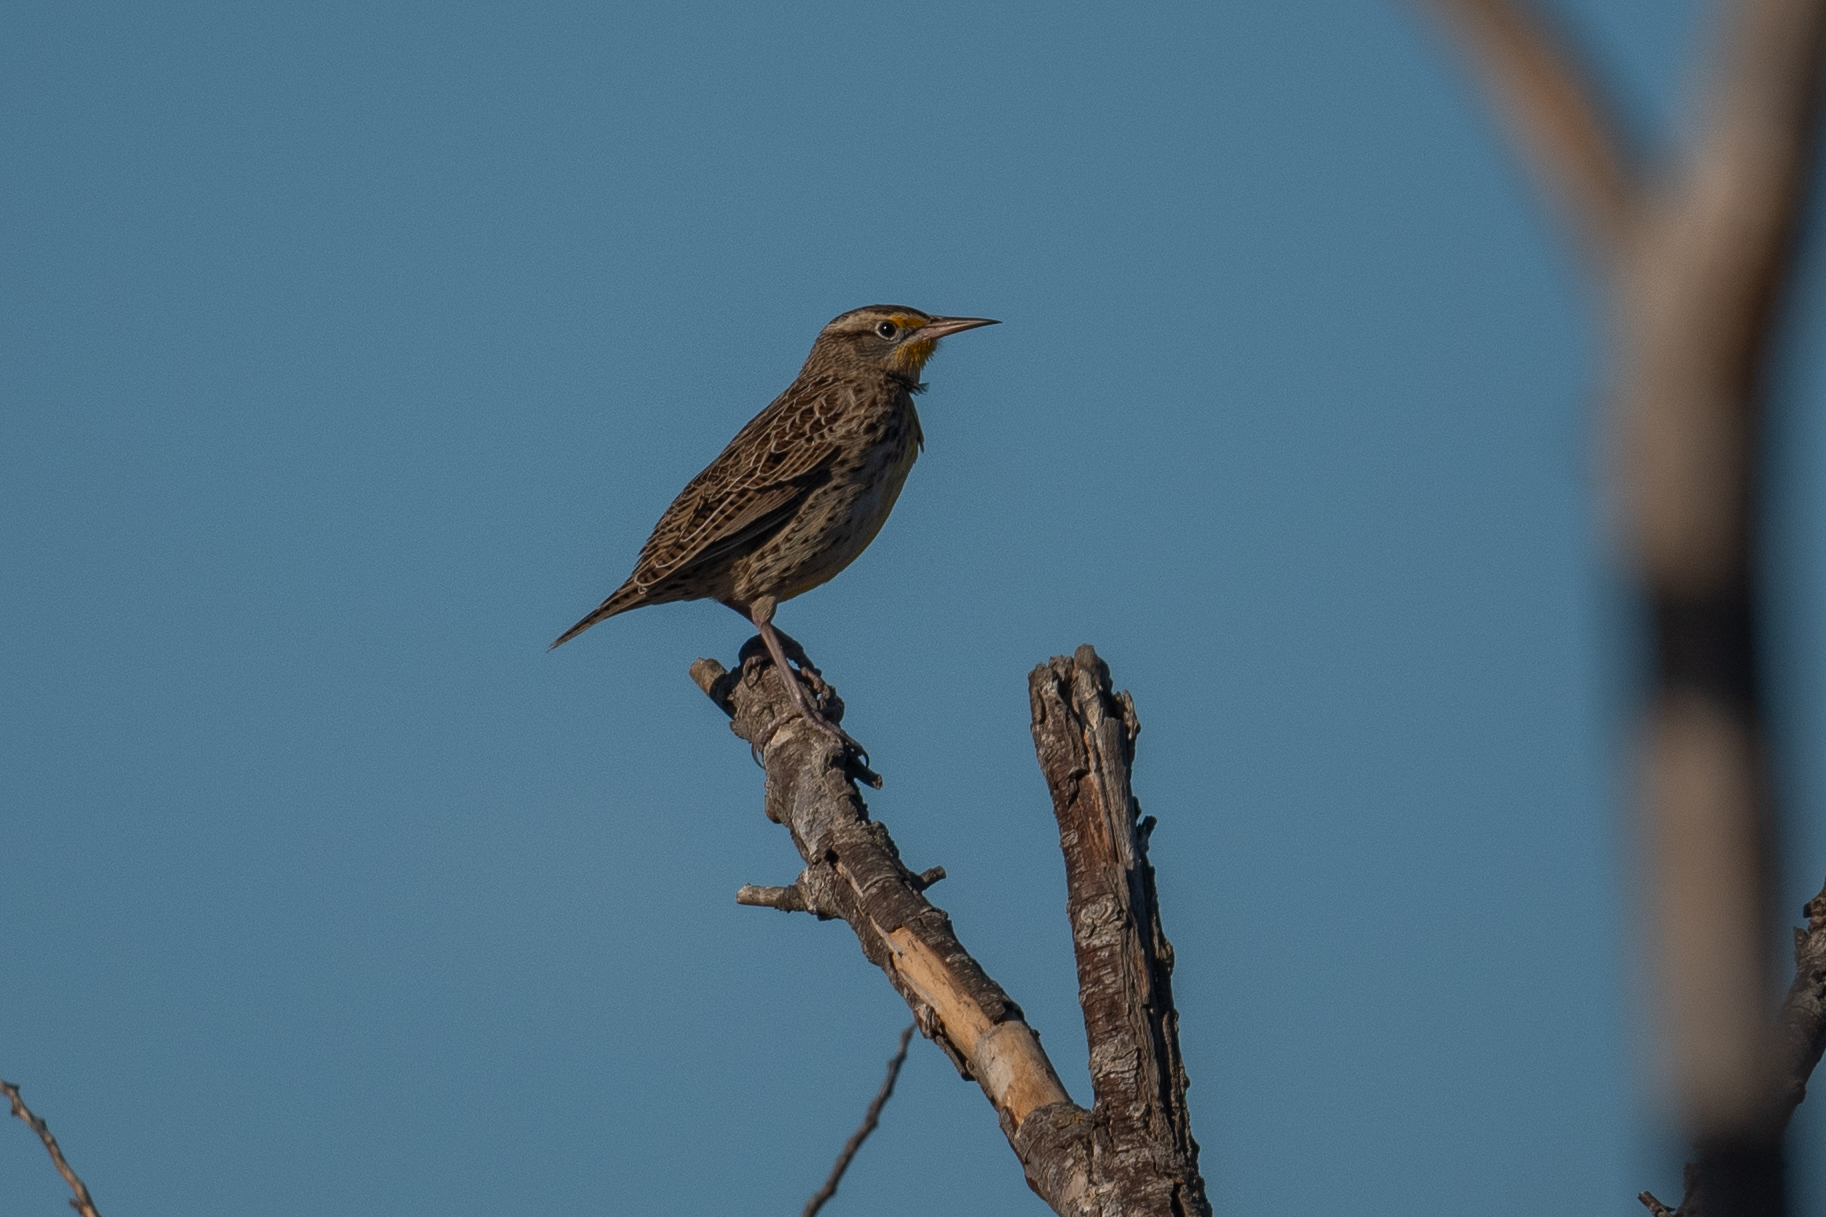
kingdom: Animalia
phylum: Chordata
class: Aves
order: Passeriformes
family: Icteridae
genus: Sturnella
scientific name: Sturnella neglecta
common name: Western meadowlark
